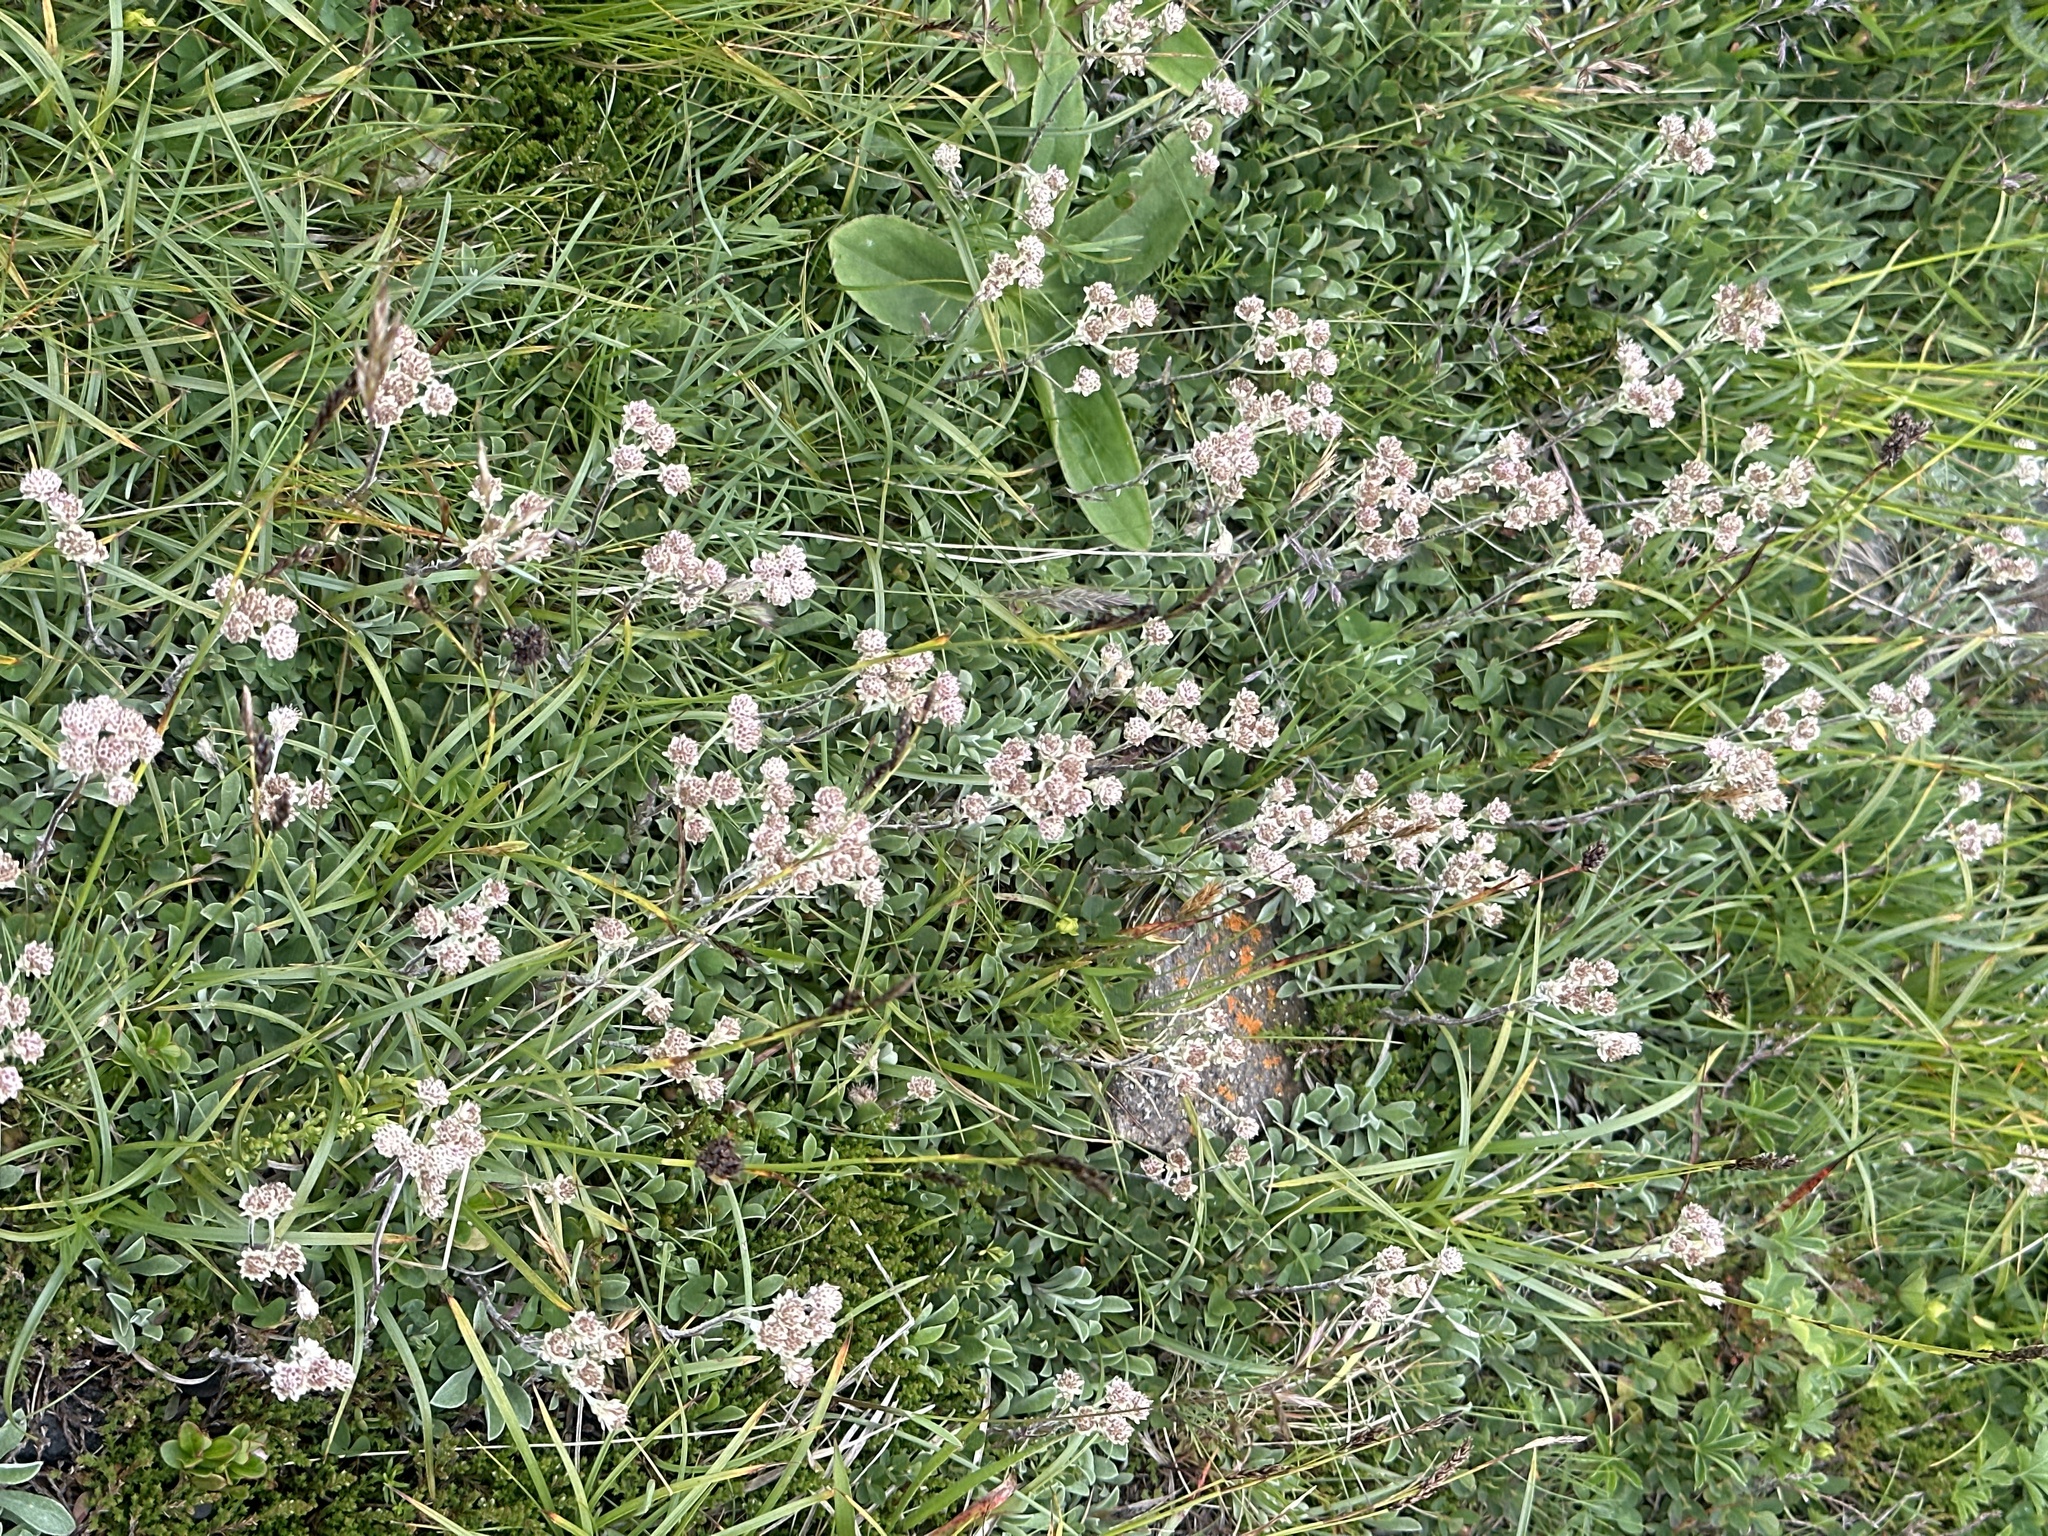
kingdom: Plantae
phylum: Tracheophyta
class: Magnoliopsida
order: Asterales
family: Asteraceae
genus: Antennaria
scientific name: Antennaria dioica
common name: Mountain everlasting
